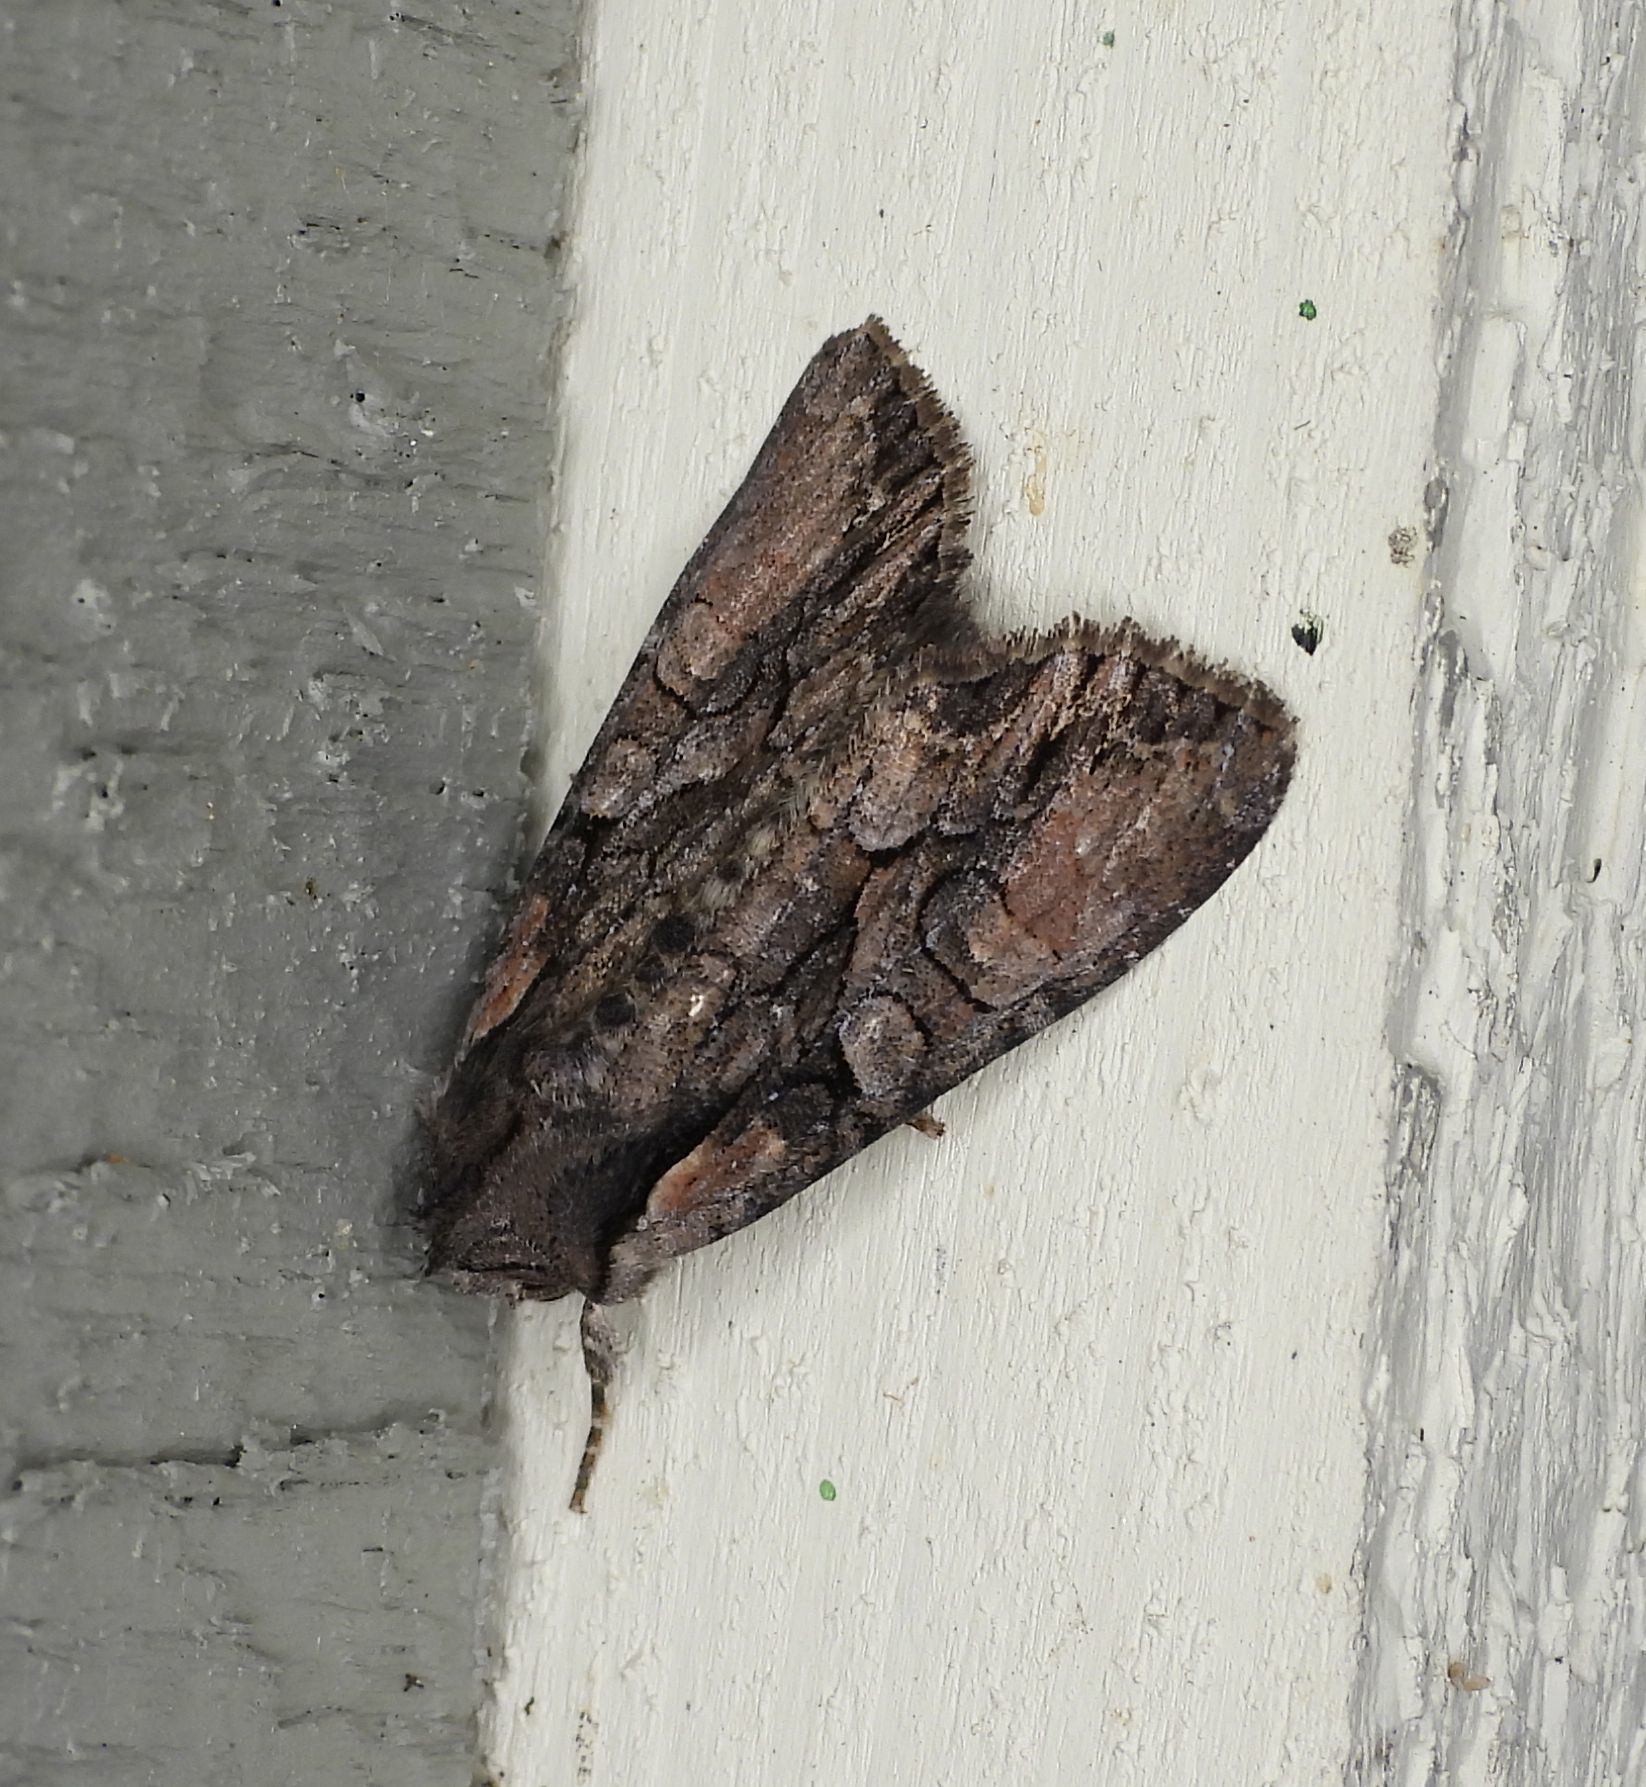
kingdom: Animalia
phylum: Arthropoda
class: Insecta
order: Lepidoptera
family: Noctuidae
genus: Lacanobia
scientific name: Lacanobia subjuncta
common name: Speckled cutworm moth
